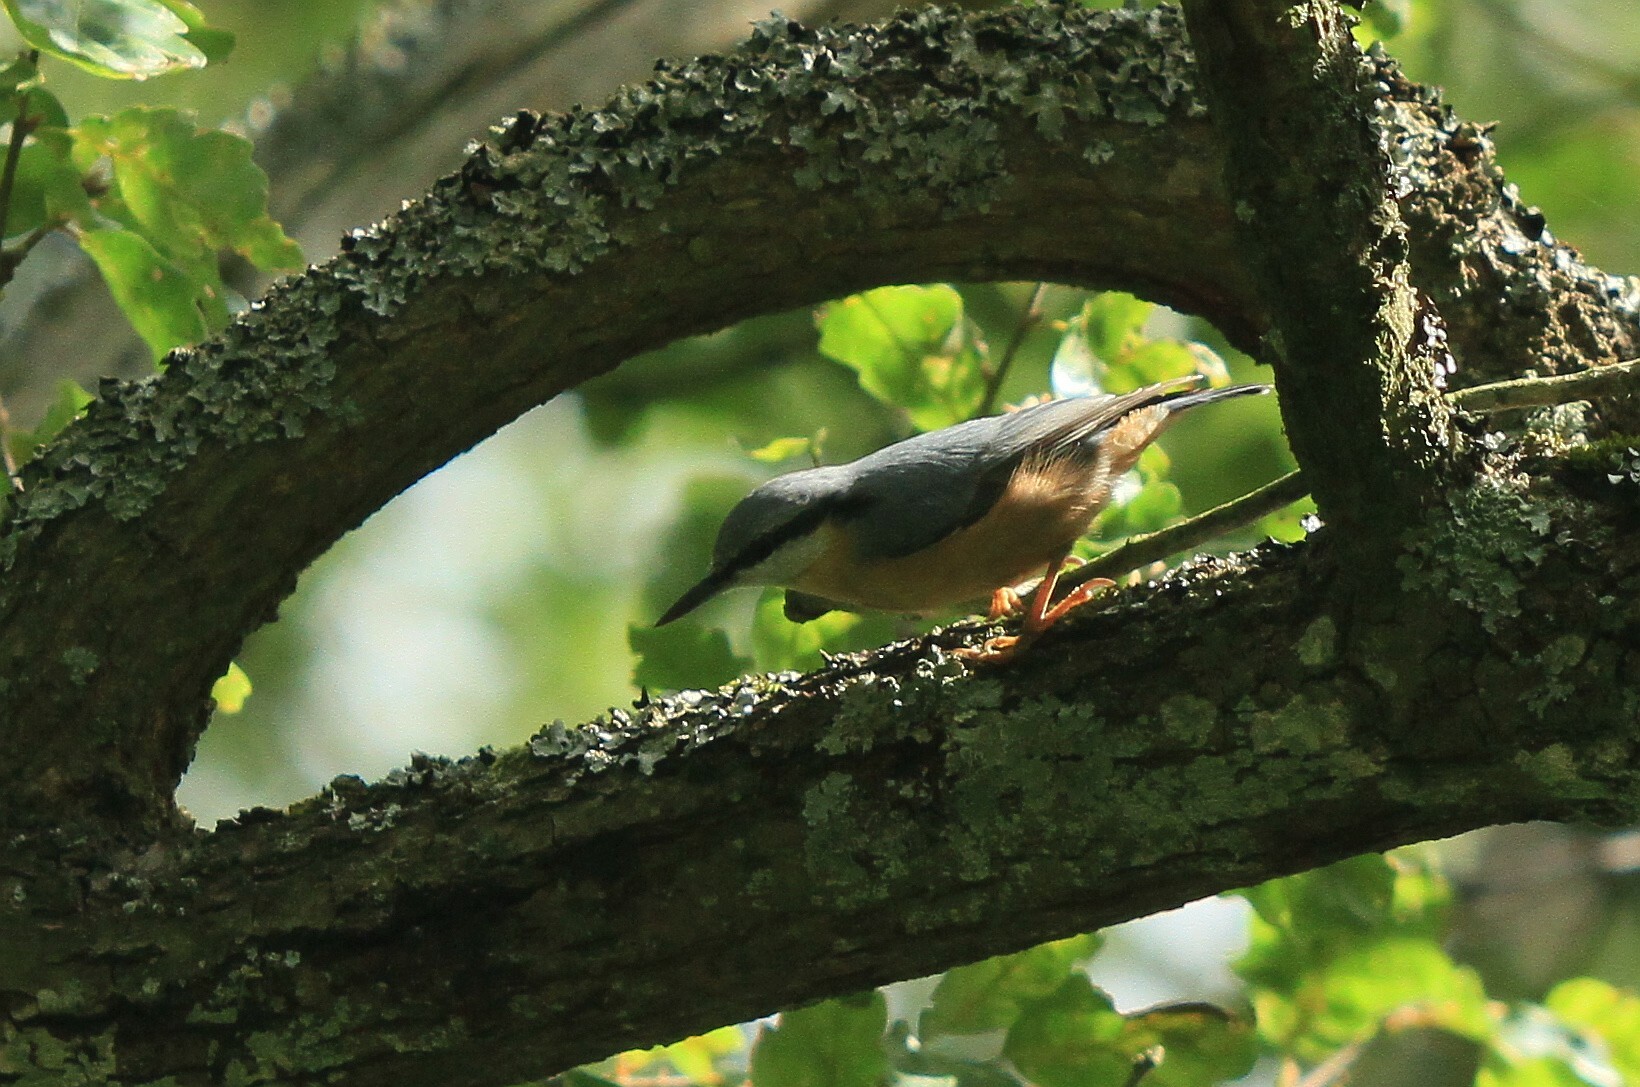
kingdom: Animalia
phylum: Chordata
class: Aves
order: Passeriformes
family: Sittidae
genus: Sitta
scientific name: Sitta europaea
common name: Eurasian nuthatch
